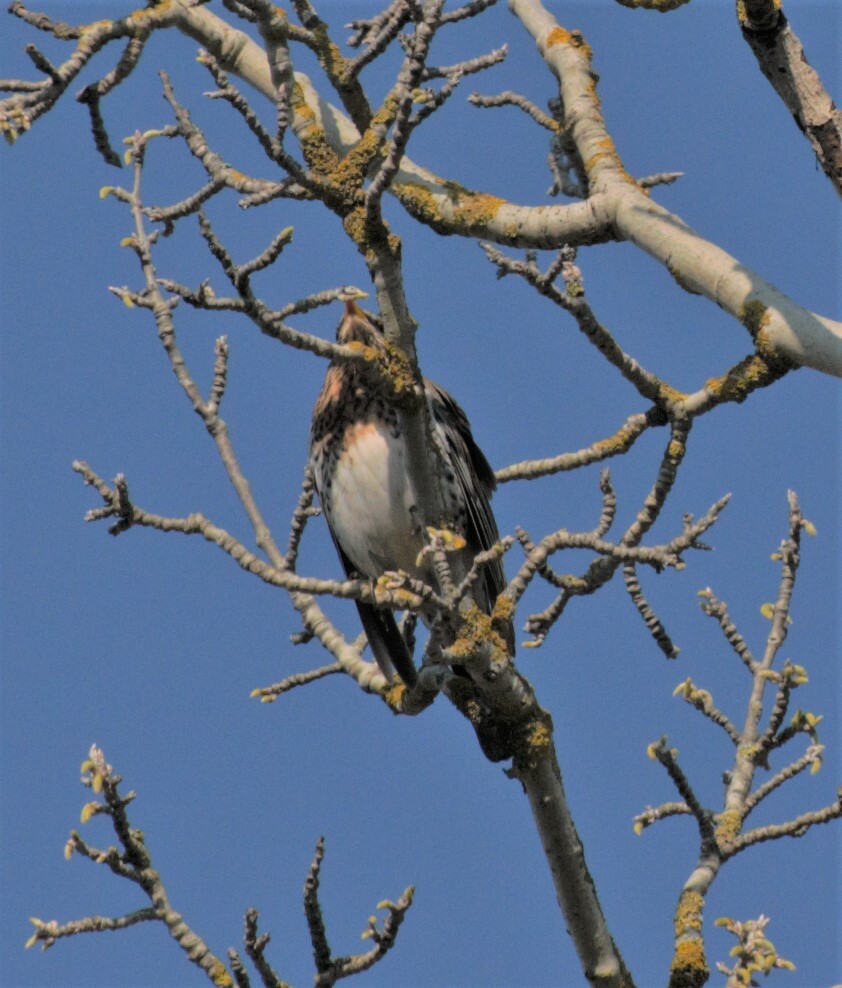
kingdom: Animalia
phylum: Chordata
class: Aves
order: Passeriformes
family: Turdidae
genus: Turdus
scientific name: Turdus pilaris
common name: Fieldfare
